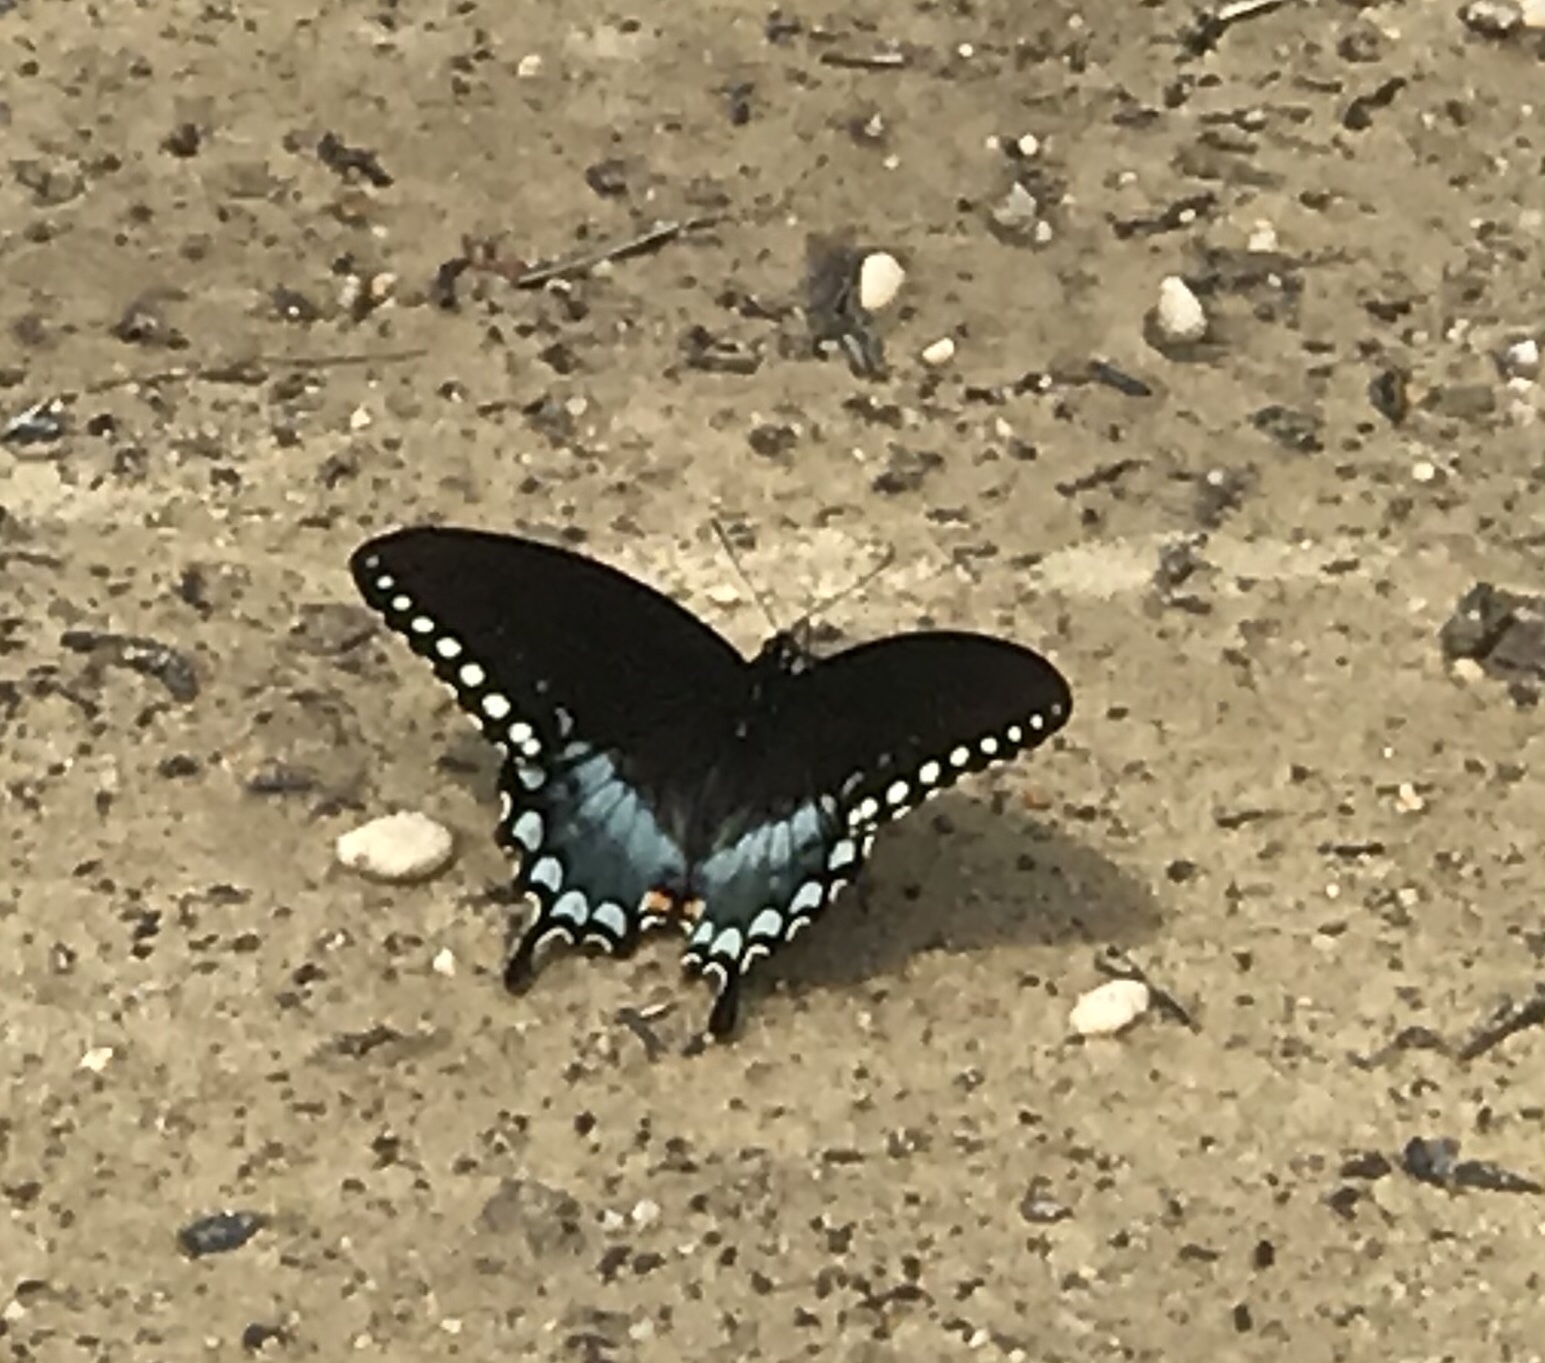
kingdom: Animalia
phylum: Arthropoda
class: Insecta
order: Lepidoptera
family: Papilionidae
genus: Papilio
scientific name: Papilio troilus
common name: Spicebush swallowtail
